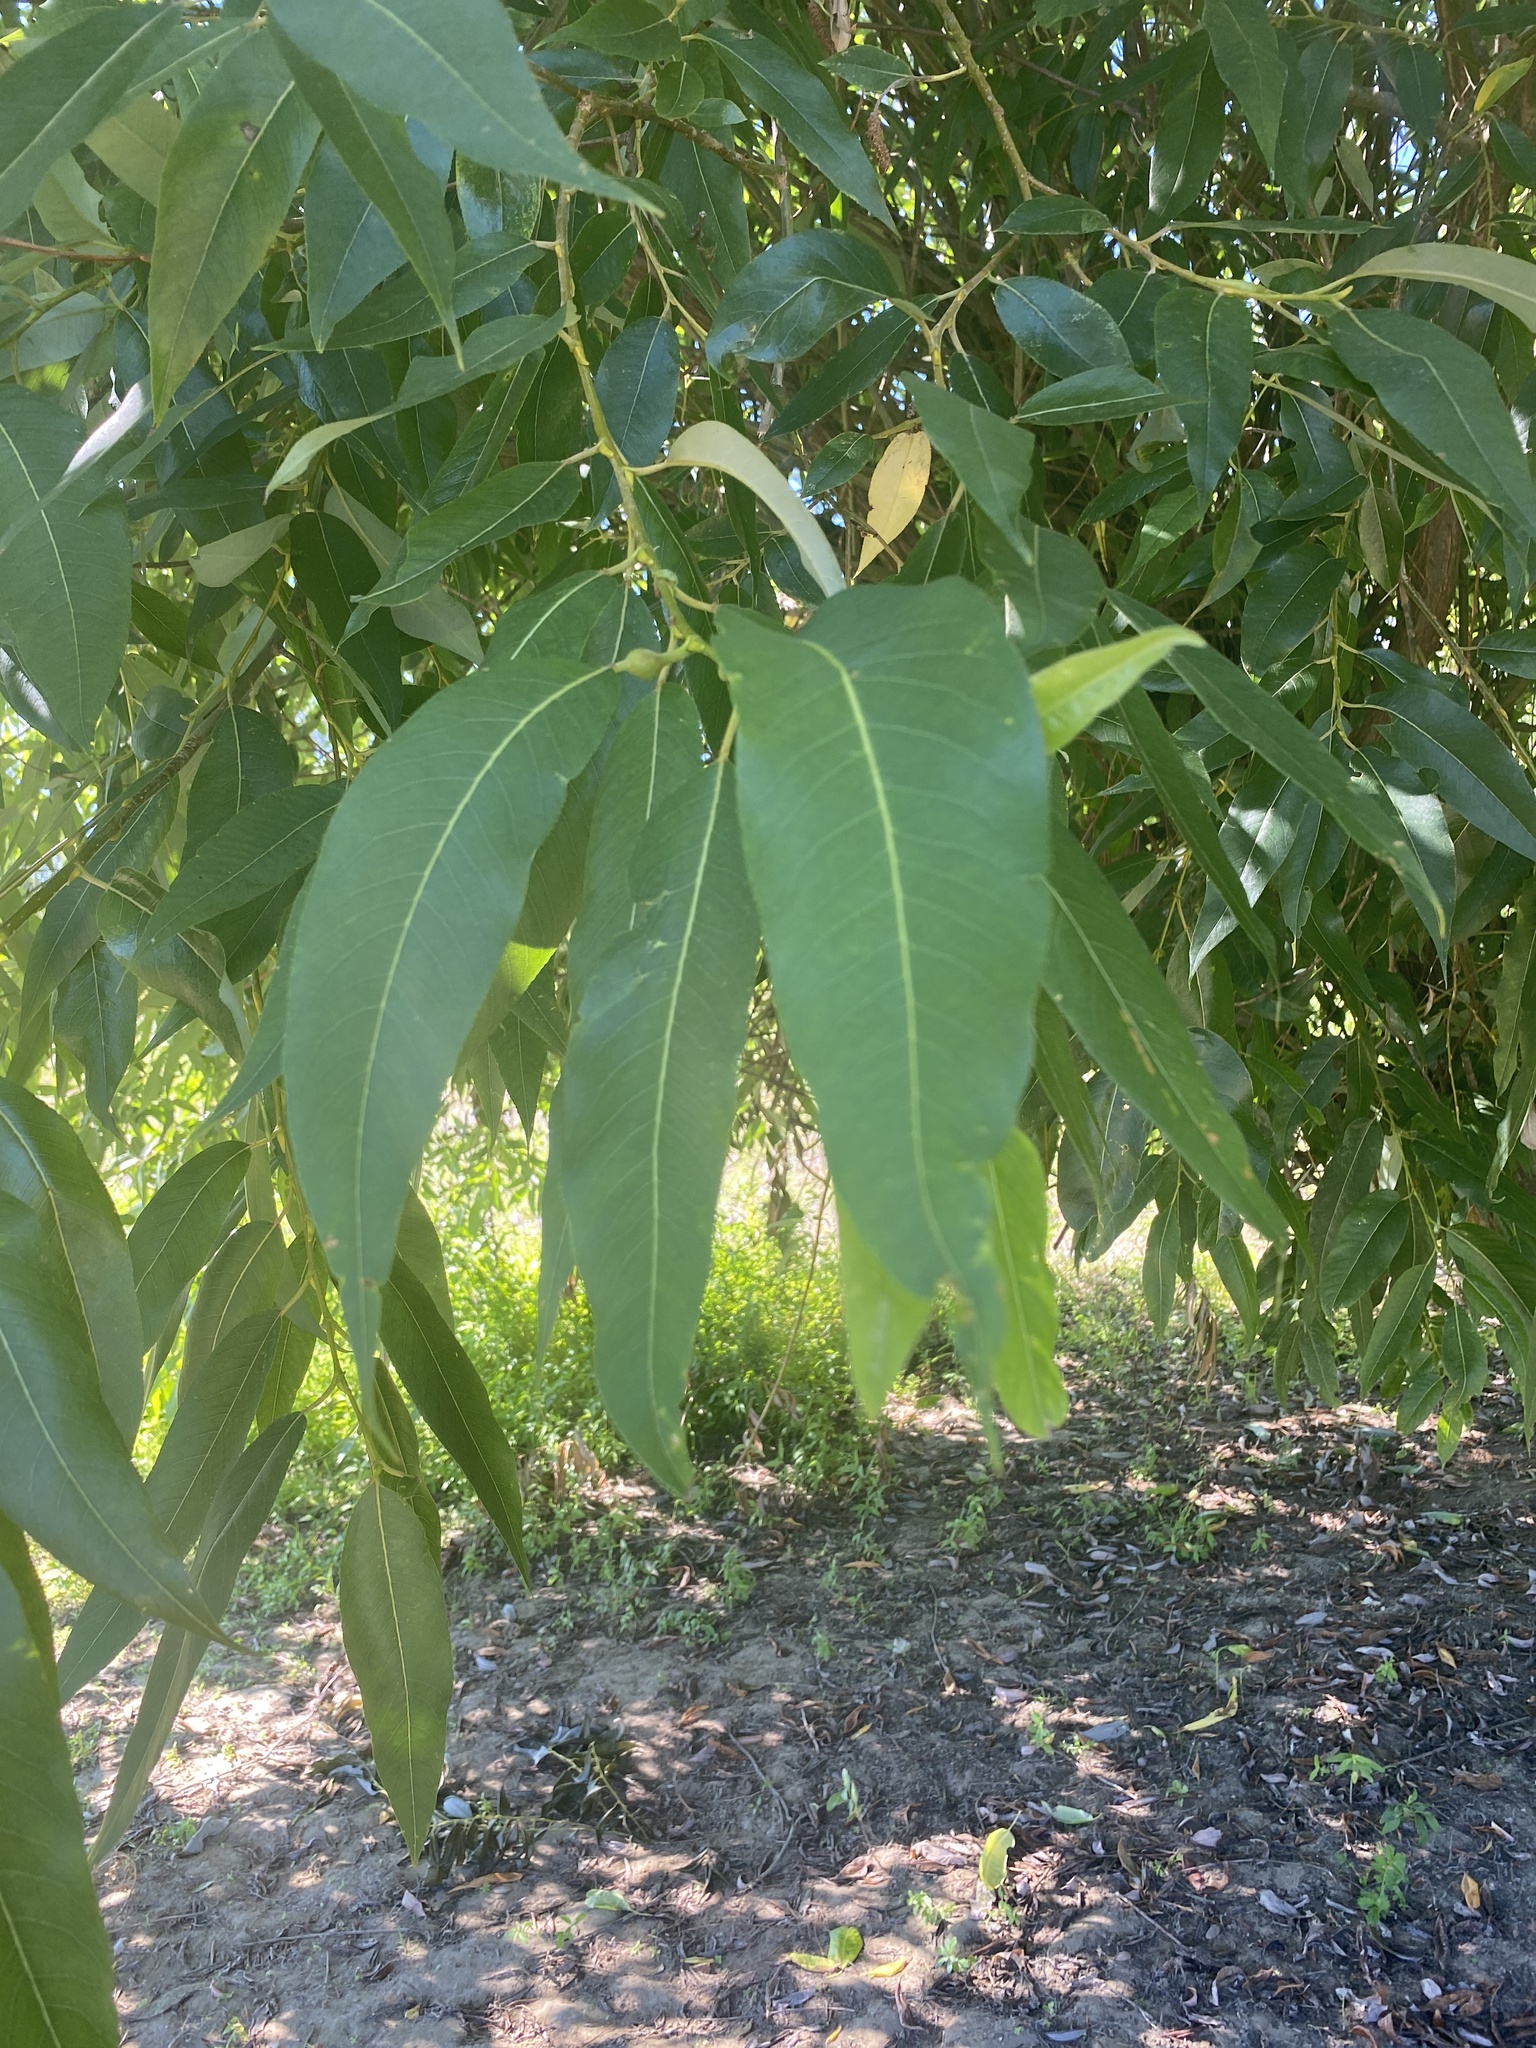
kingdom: Plantae
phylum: Tracheophyta
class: Magnoliopsida
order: Malpighiales
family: Salicaceae
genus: Salix
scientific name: Salix lucida
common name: Shining willow
